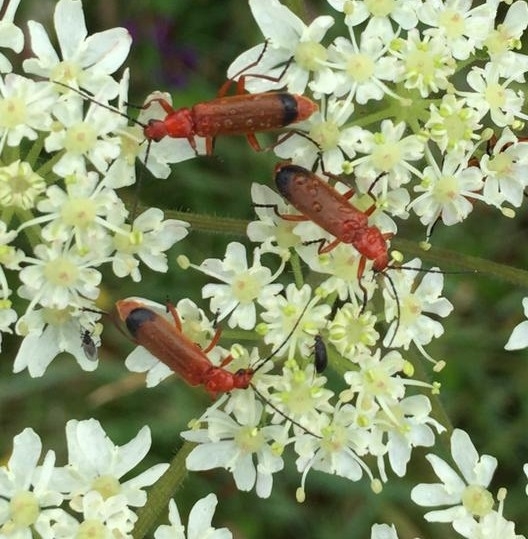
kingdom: Animalia
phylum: Arthropoda
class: Insecta
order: Coleoptera
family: Cantharidae
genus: Rhagonycha
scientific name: Rhagonycha fulva
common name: Common red soldier beetle
